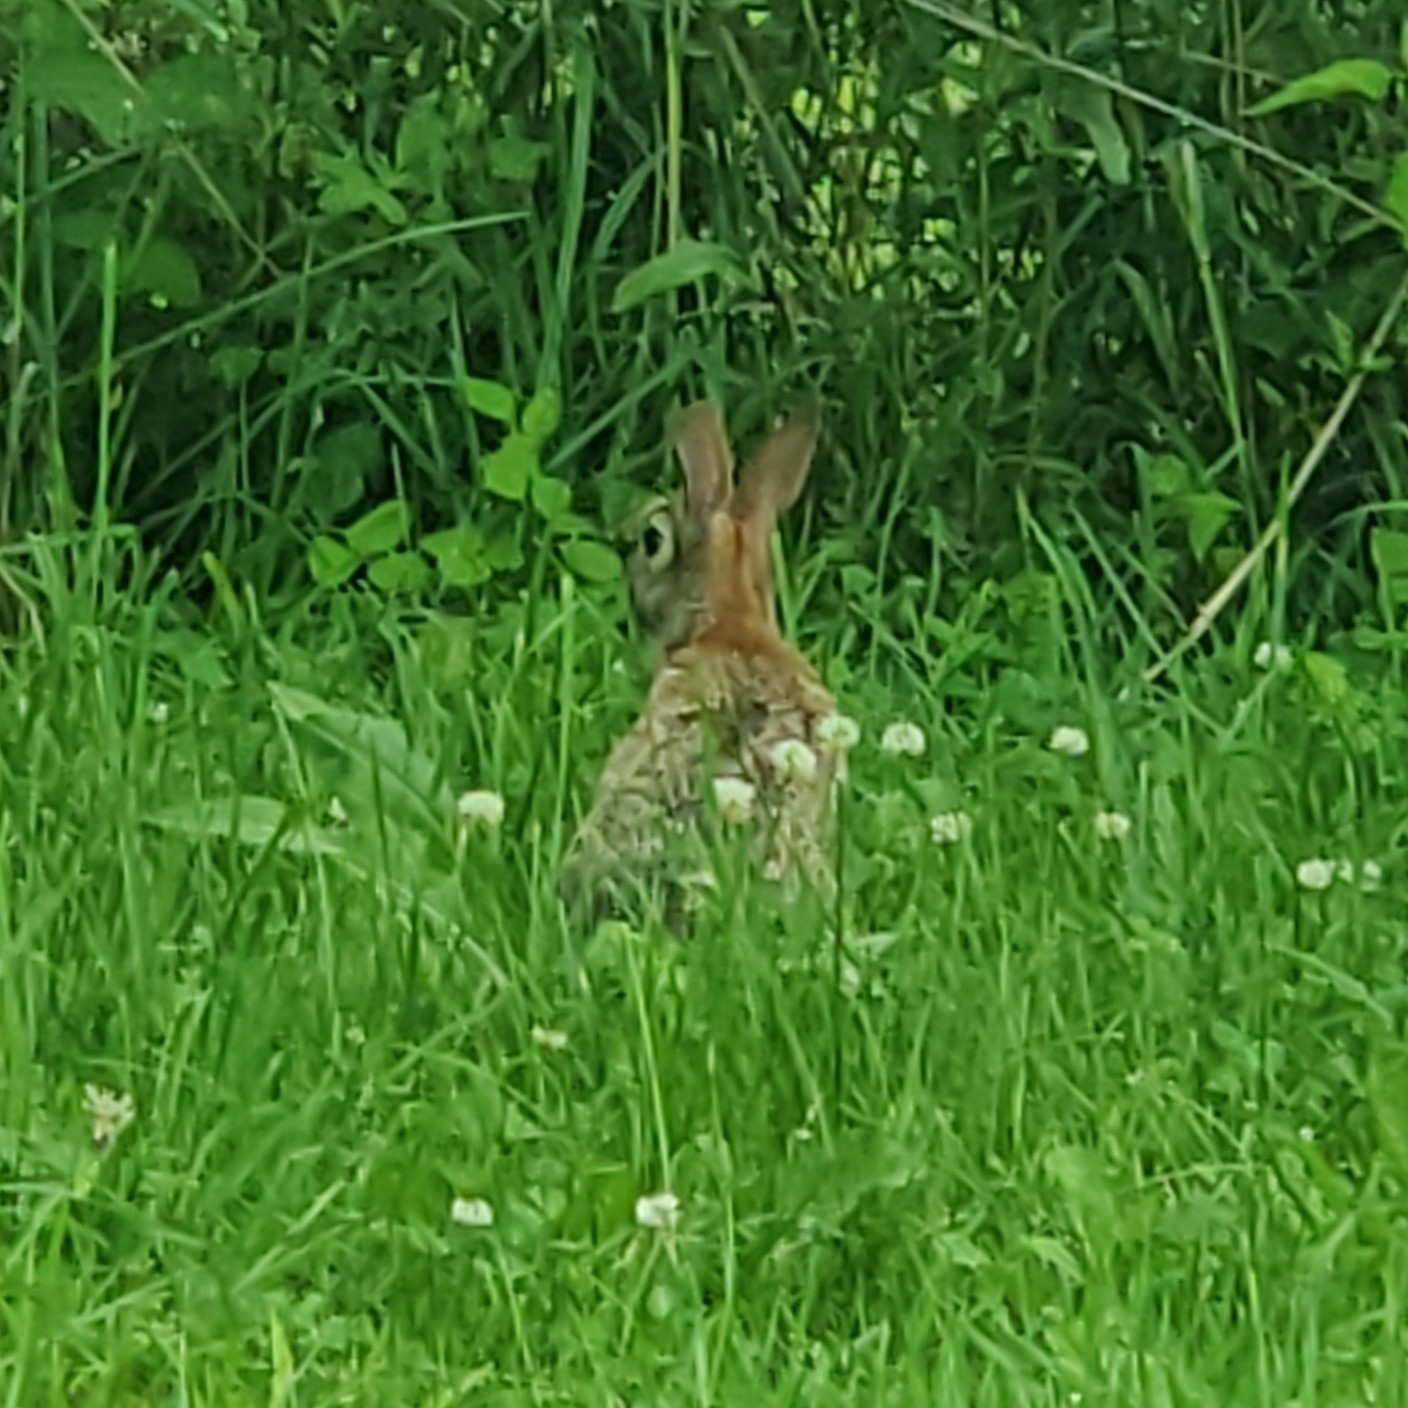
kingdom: Animalia
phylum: Chordata
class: Mammalia
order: Lagomorpha
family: Leporidae
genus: Sylvilagus
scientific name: Sylvilagus floridanus
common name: Eastern cottontail
